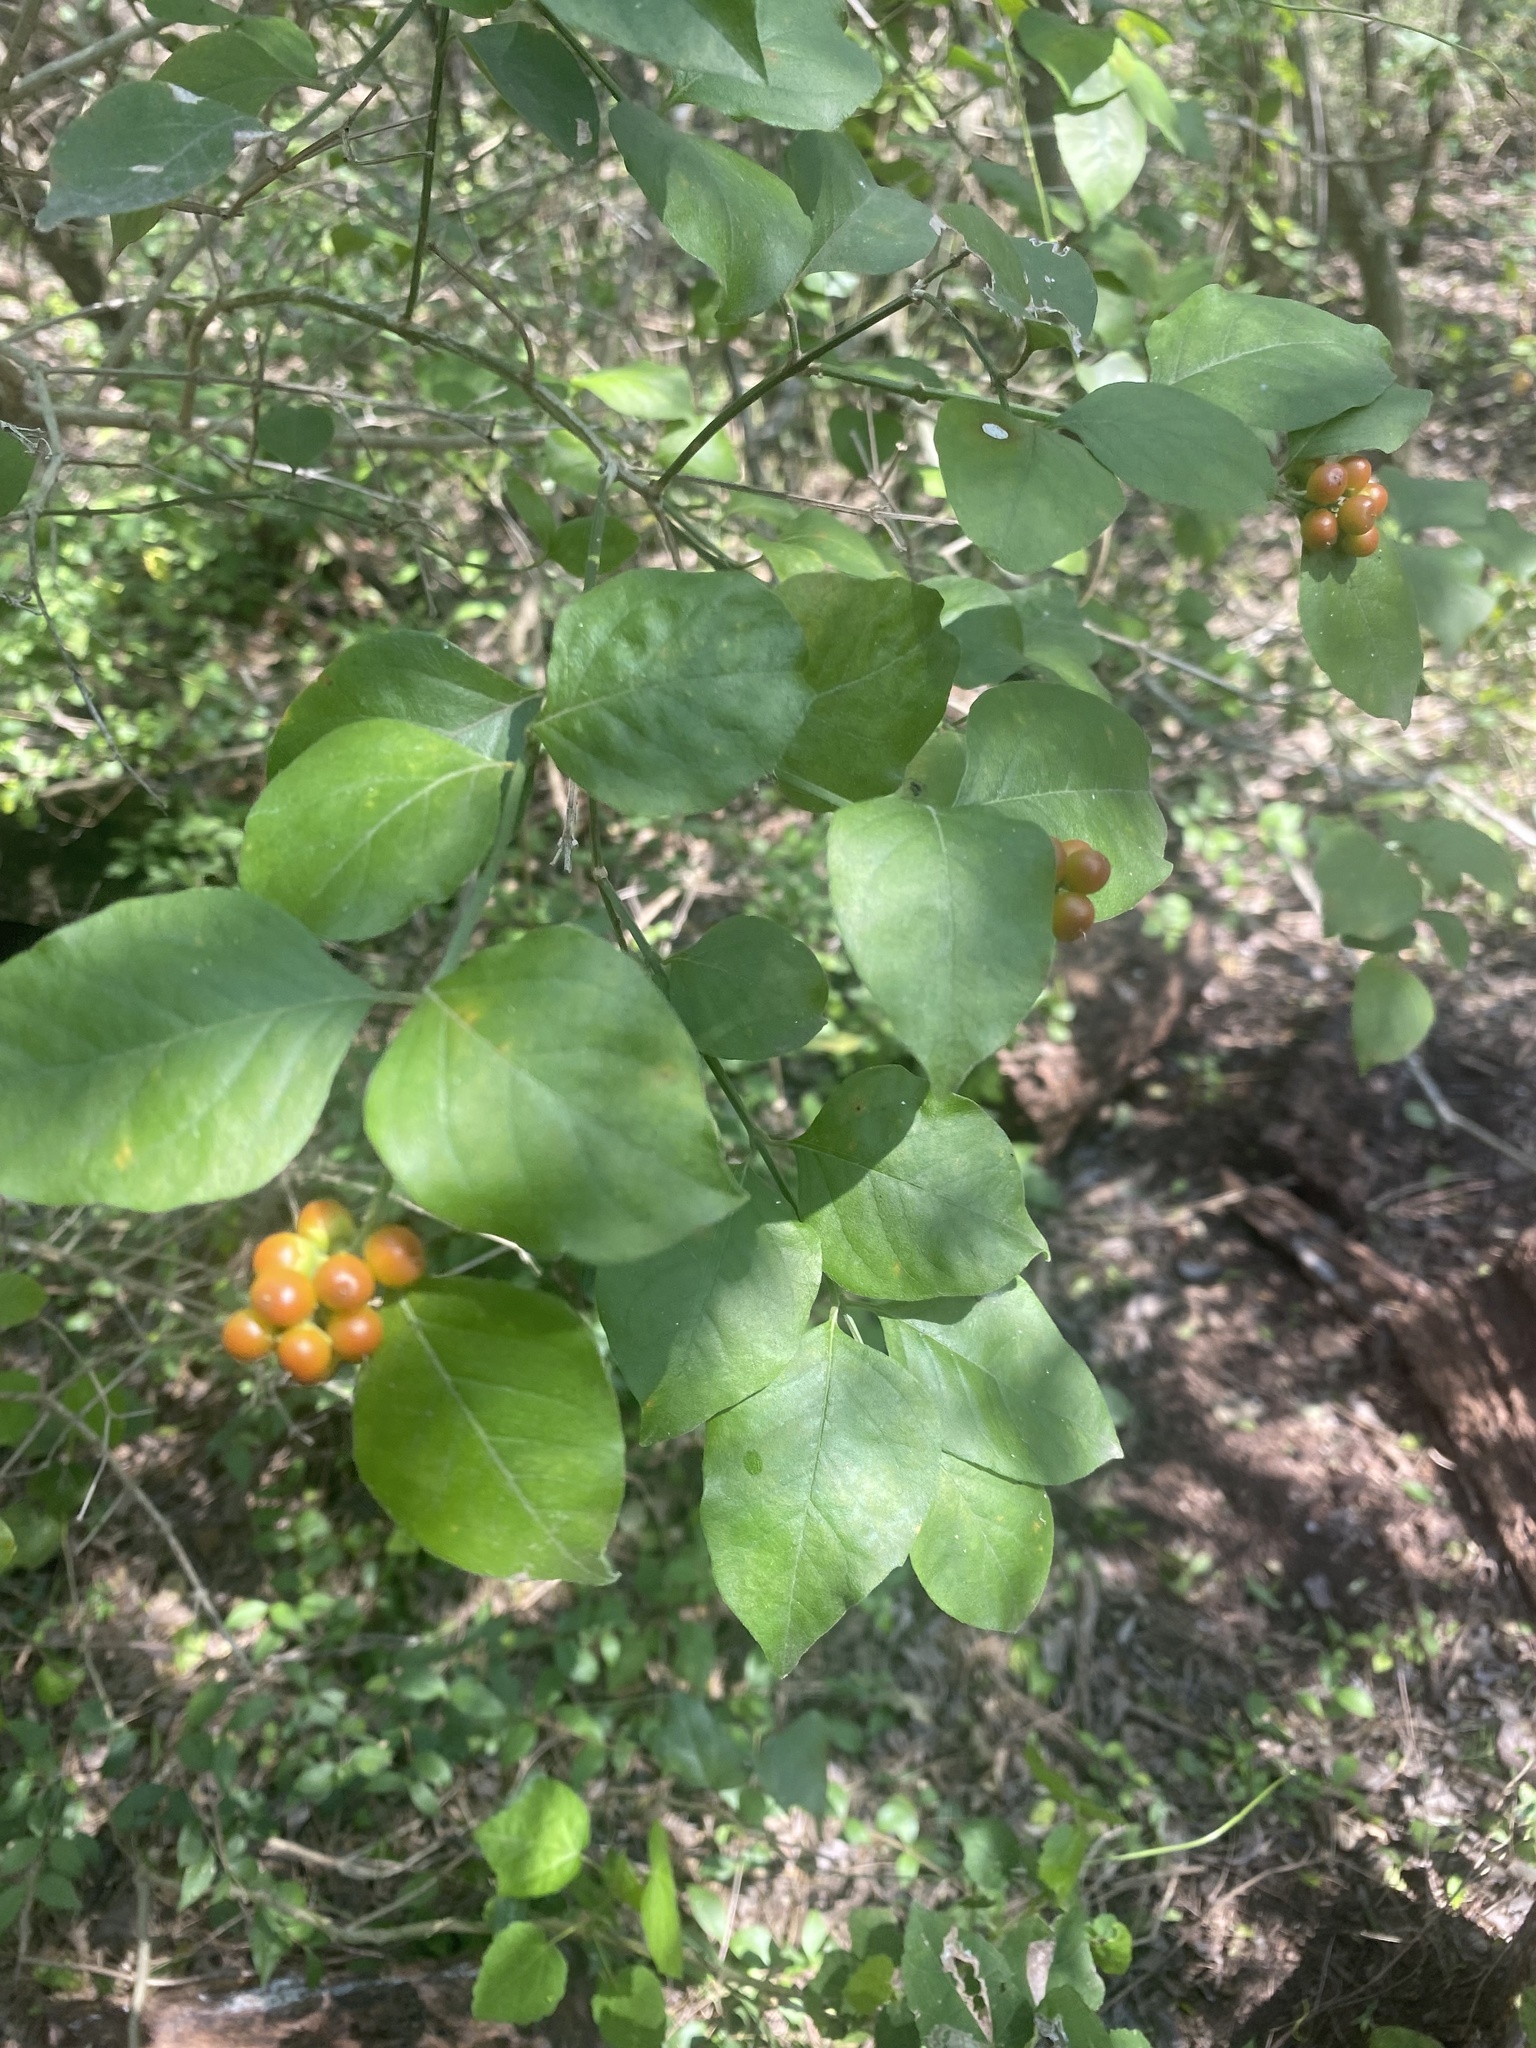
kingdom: Plantae
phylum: Tracheophyta
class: Magnoliopsida
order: Lamiales
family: Verbenaceae
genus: Citharexylum
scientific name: Citharexylum berlandieri
